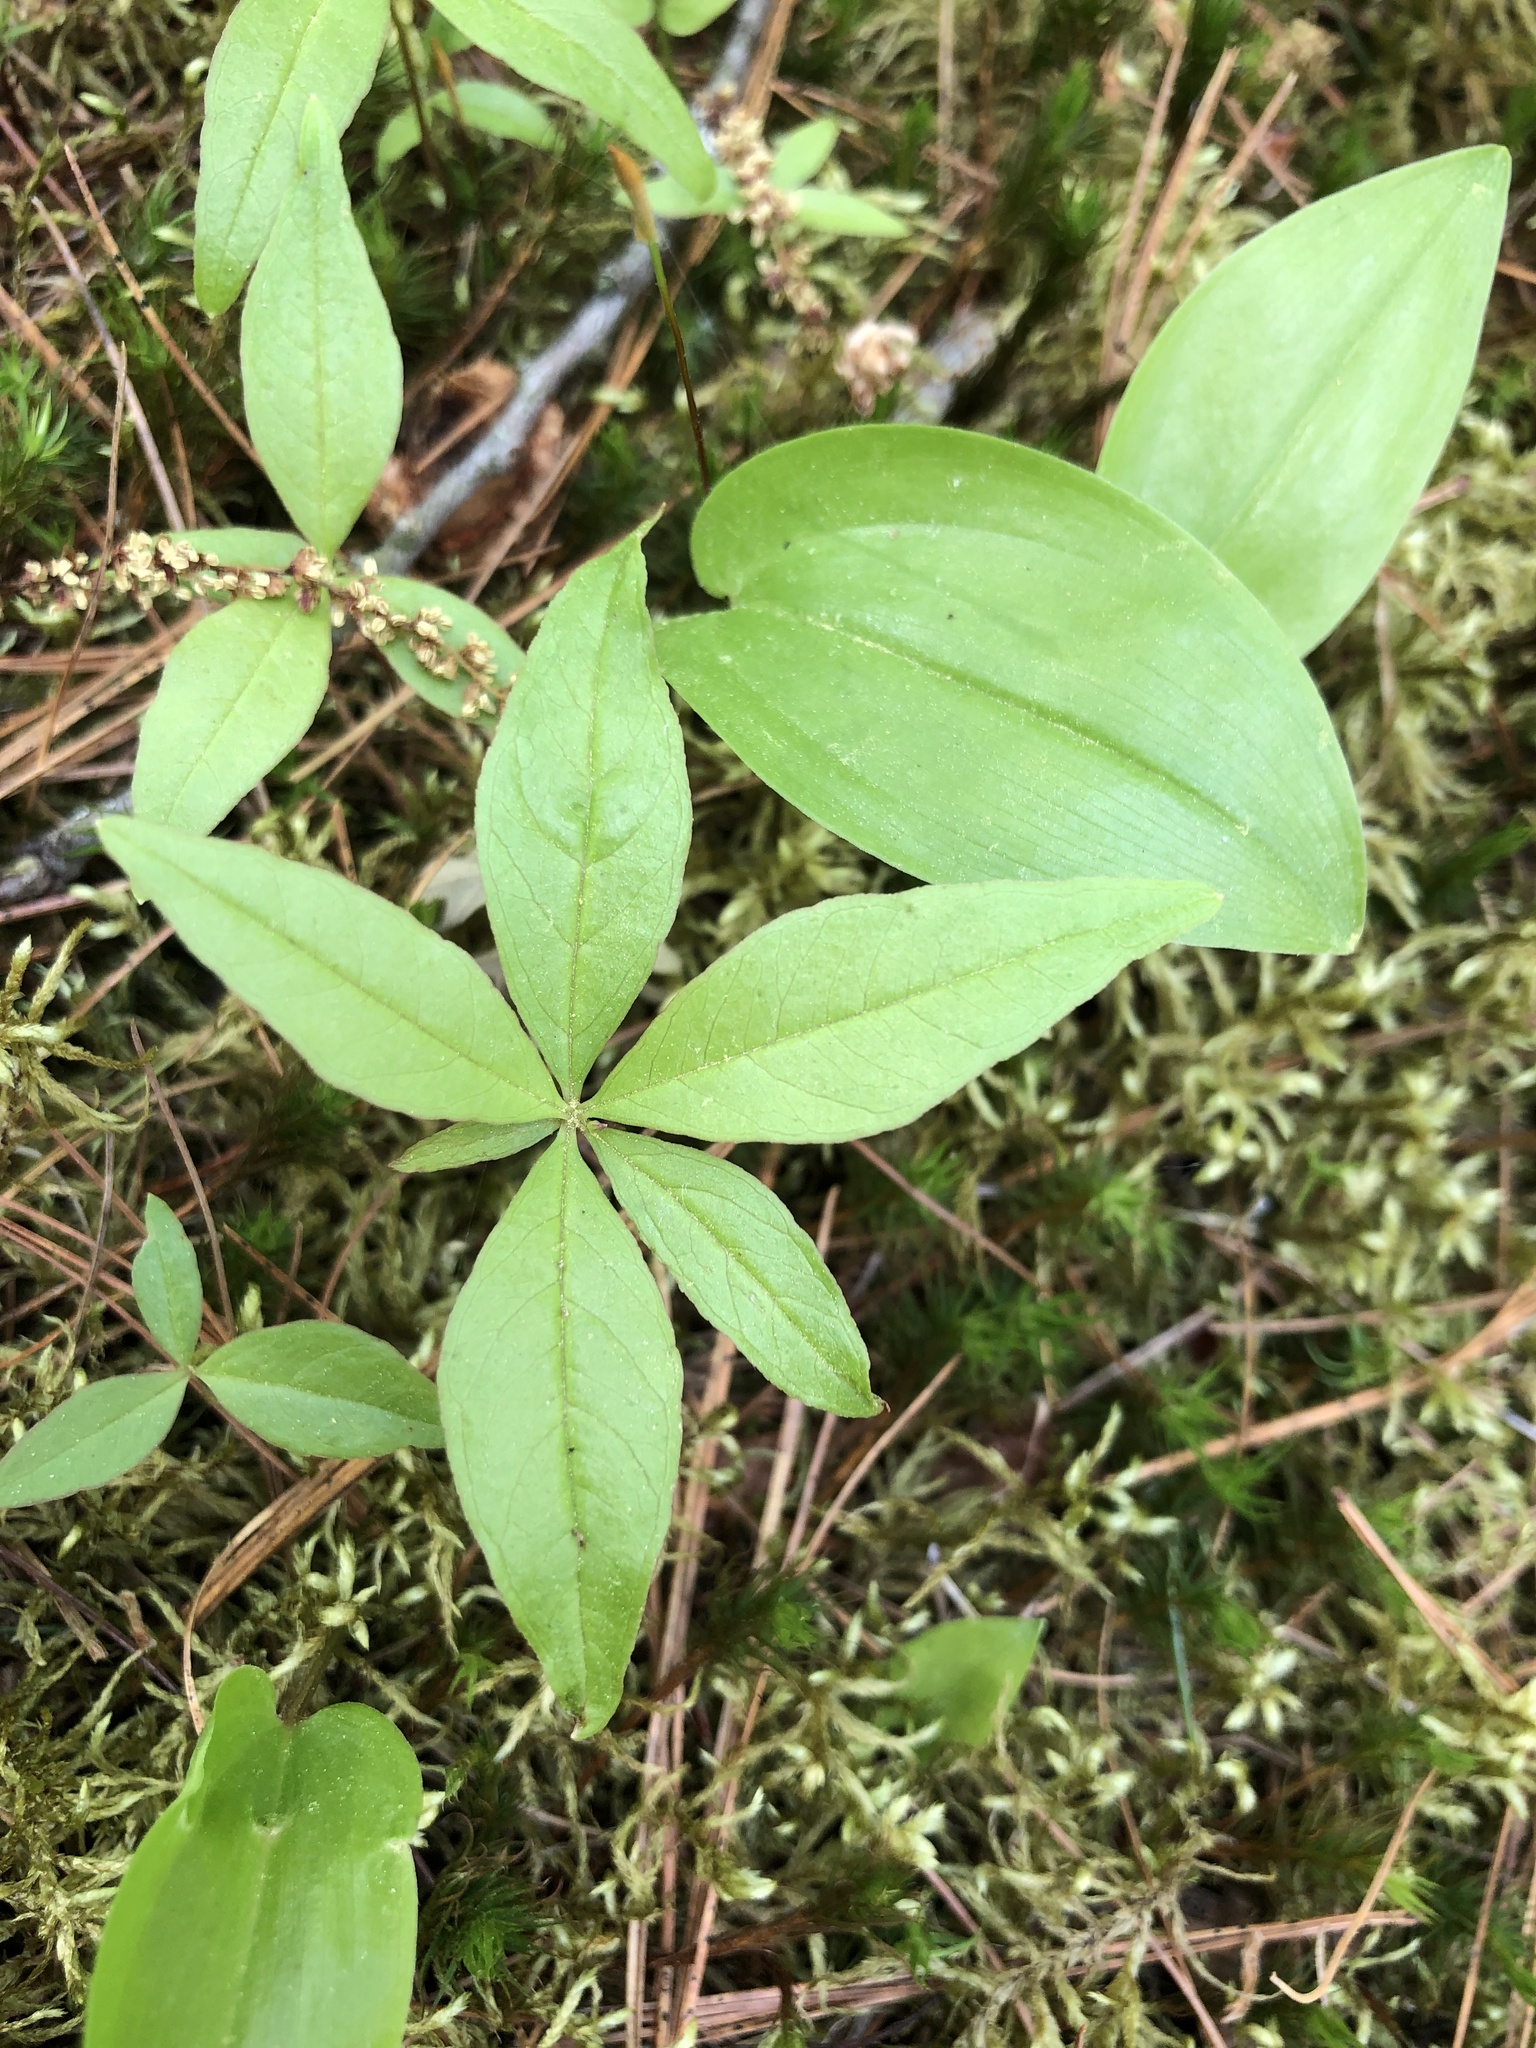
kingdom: Plantae
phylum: Tracheophyta
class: Magnoliopsida
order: Ericales
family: Primulaceae
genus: Lysimachia
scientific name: Lysimachia borealis
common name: American starflower
